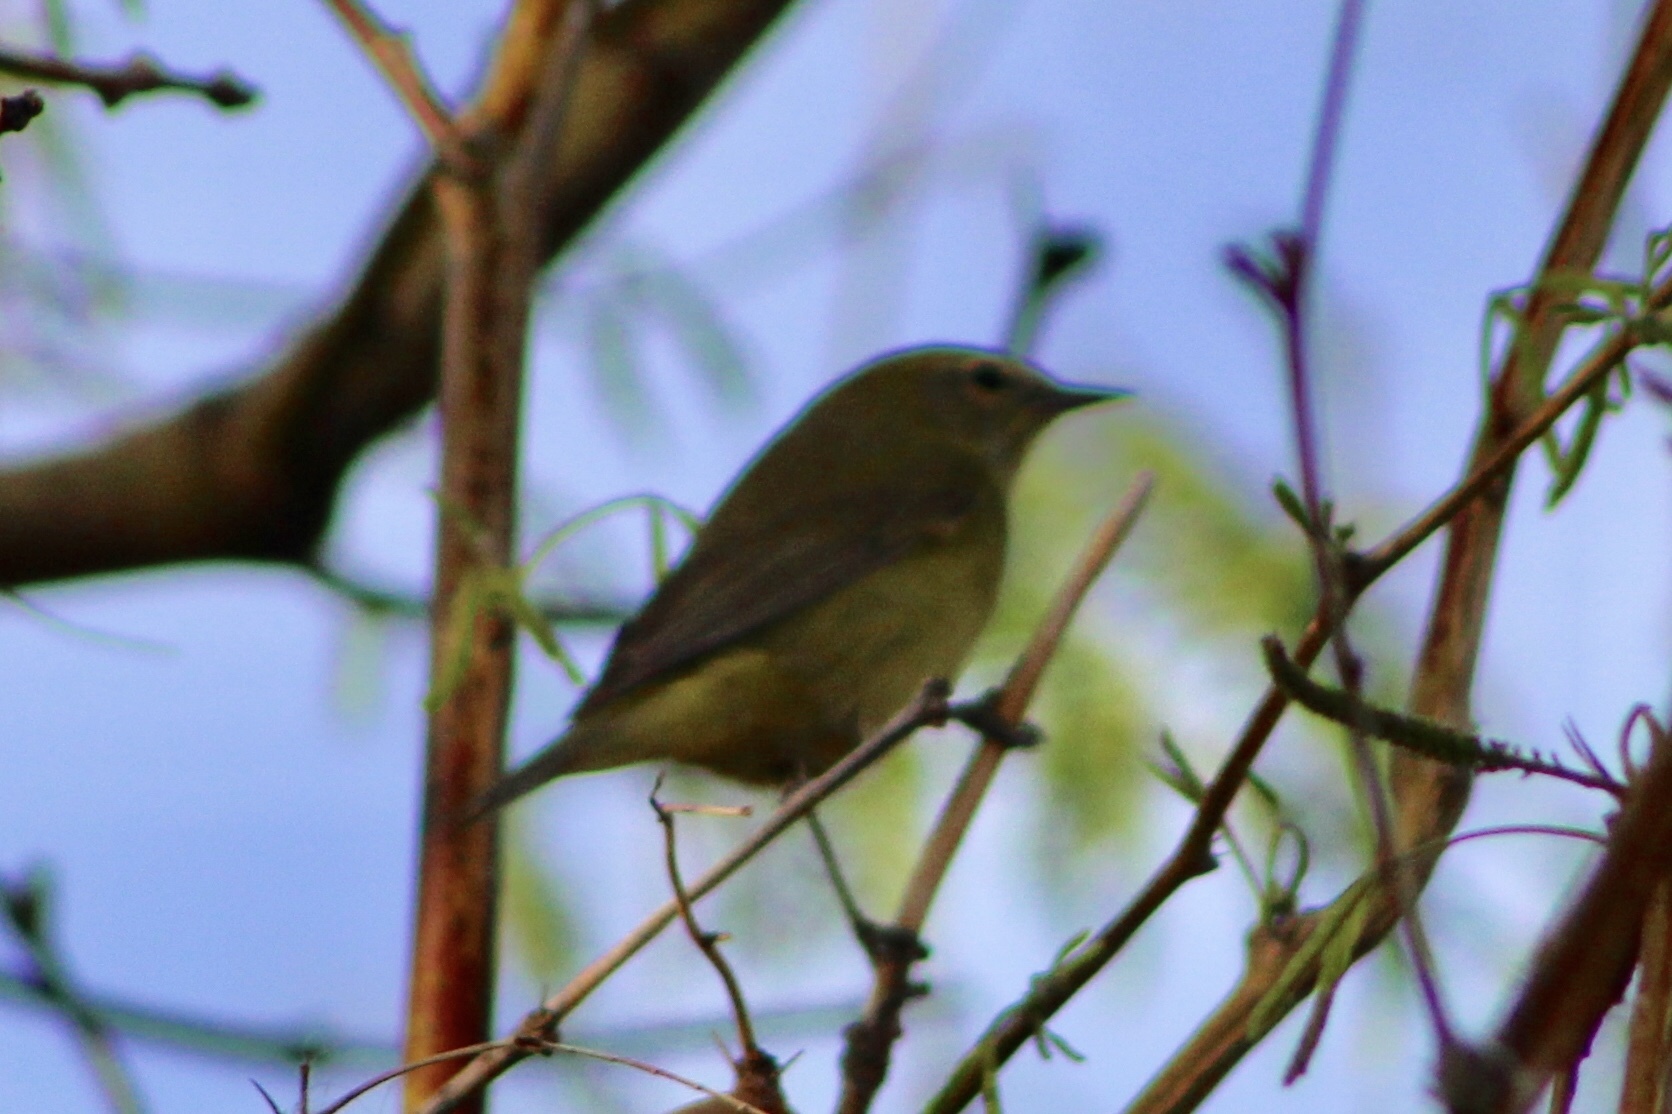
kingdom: Animalia
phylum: Chordata
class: Aves
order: Passeriformes
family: Parulidae
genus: Leiothlypis
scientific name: Leiothlypis celata
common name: Orange-crowned warbler
